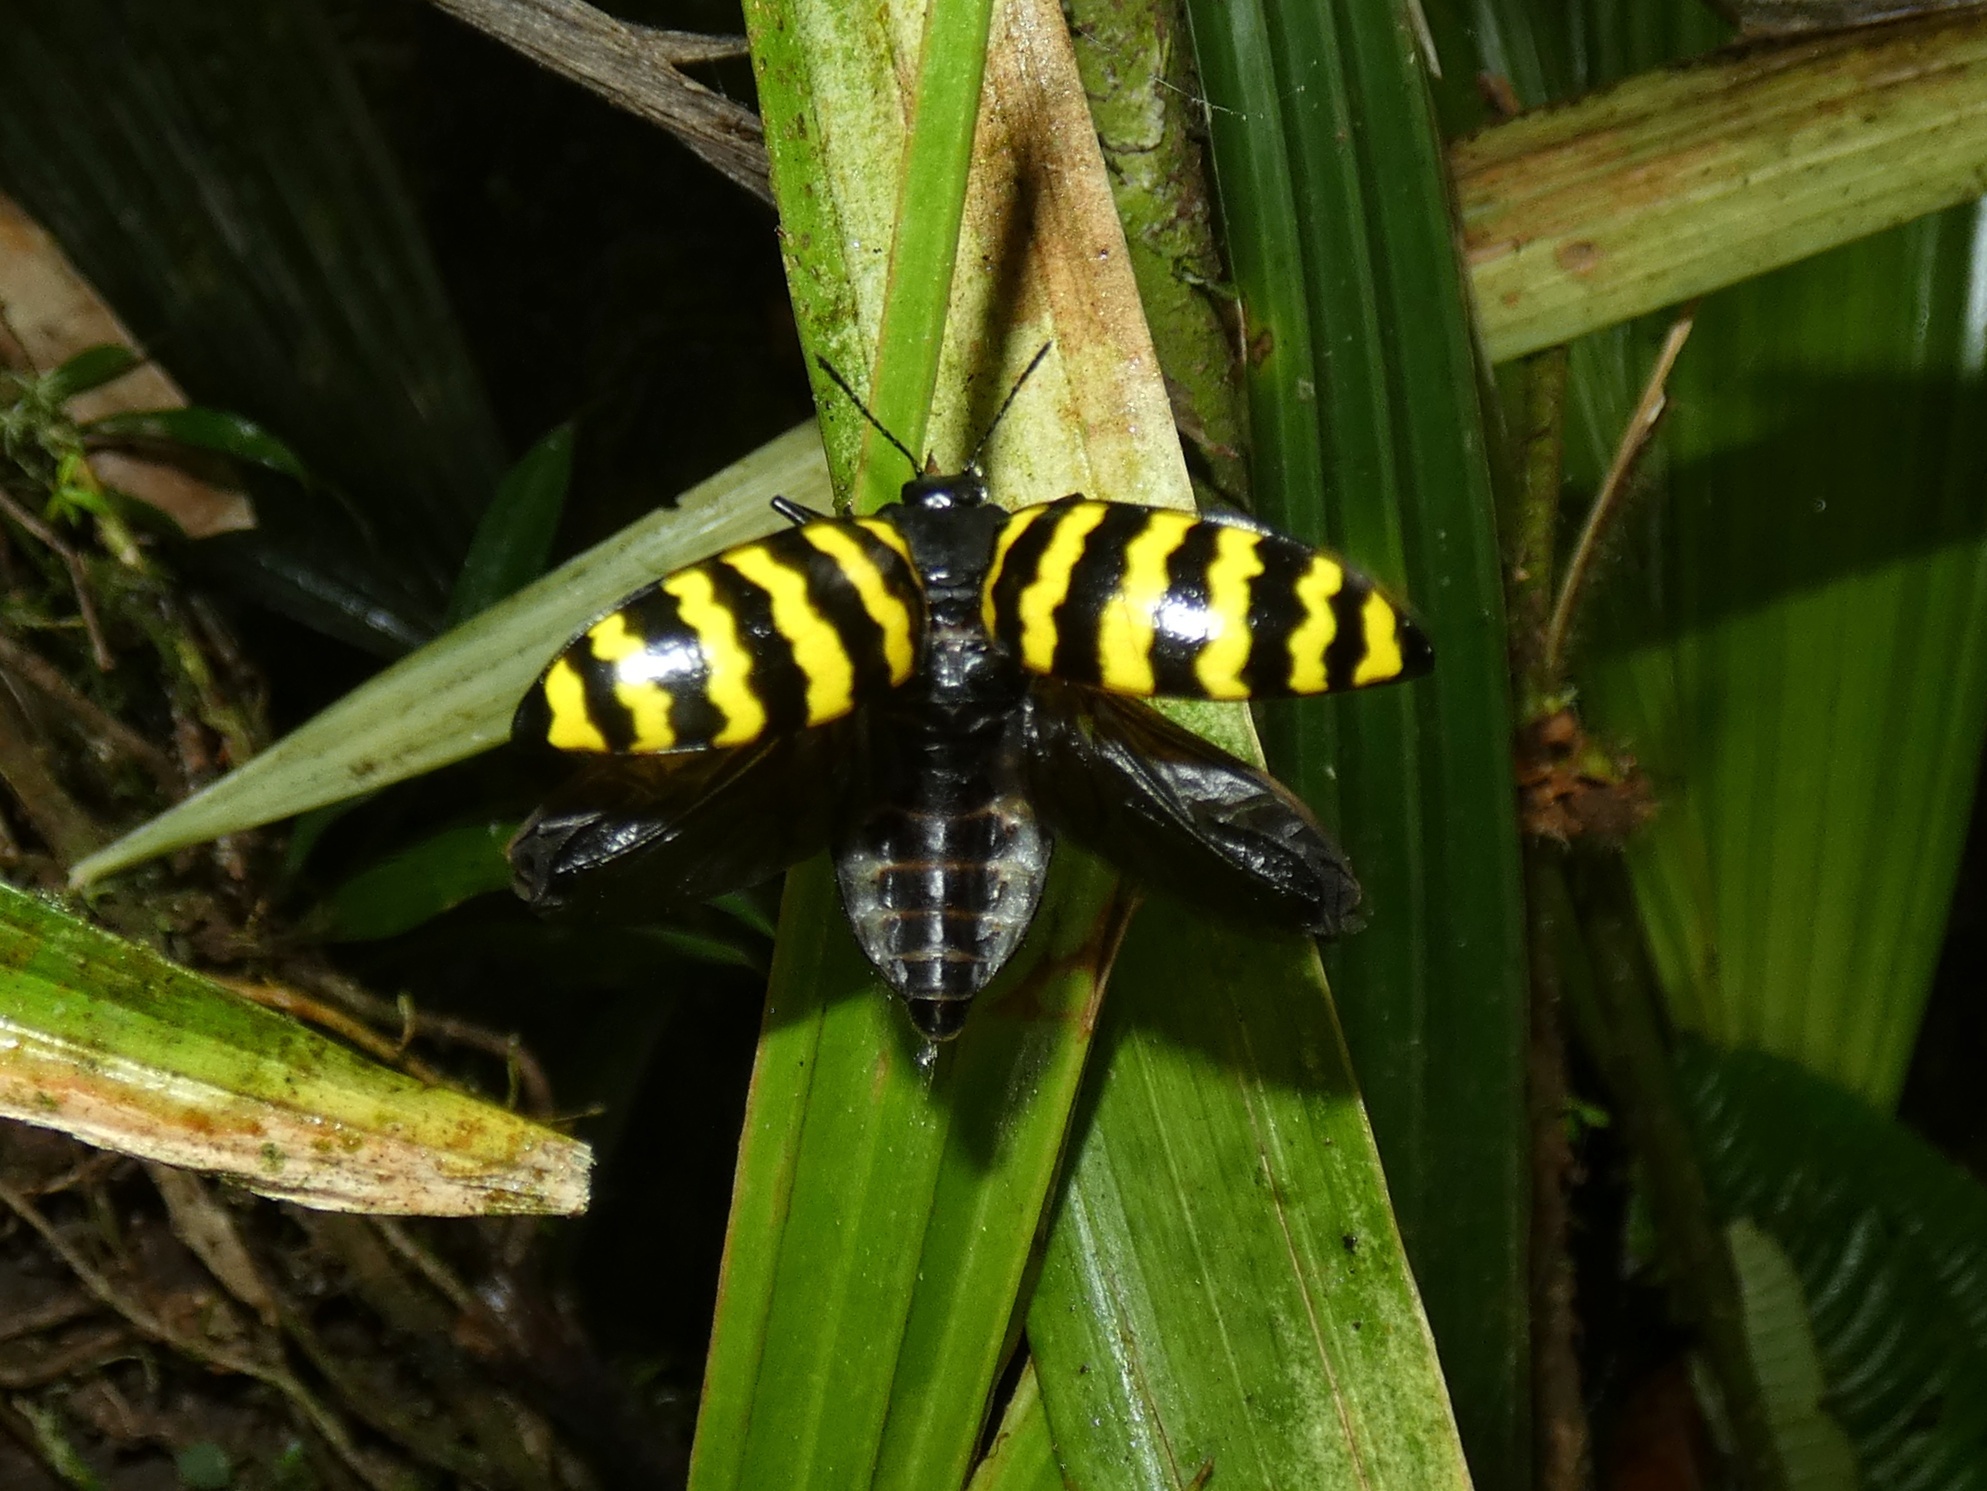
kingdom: Animalia
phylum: Arthropoda
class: Insecta
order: Coleoptera
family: Erotylidae
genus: Erotylus
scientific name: Erotylus
